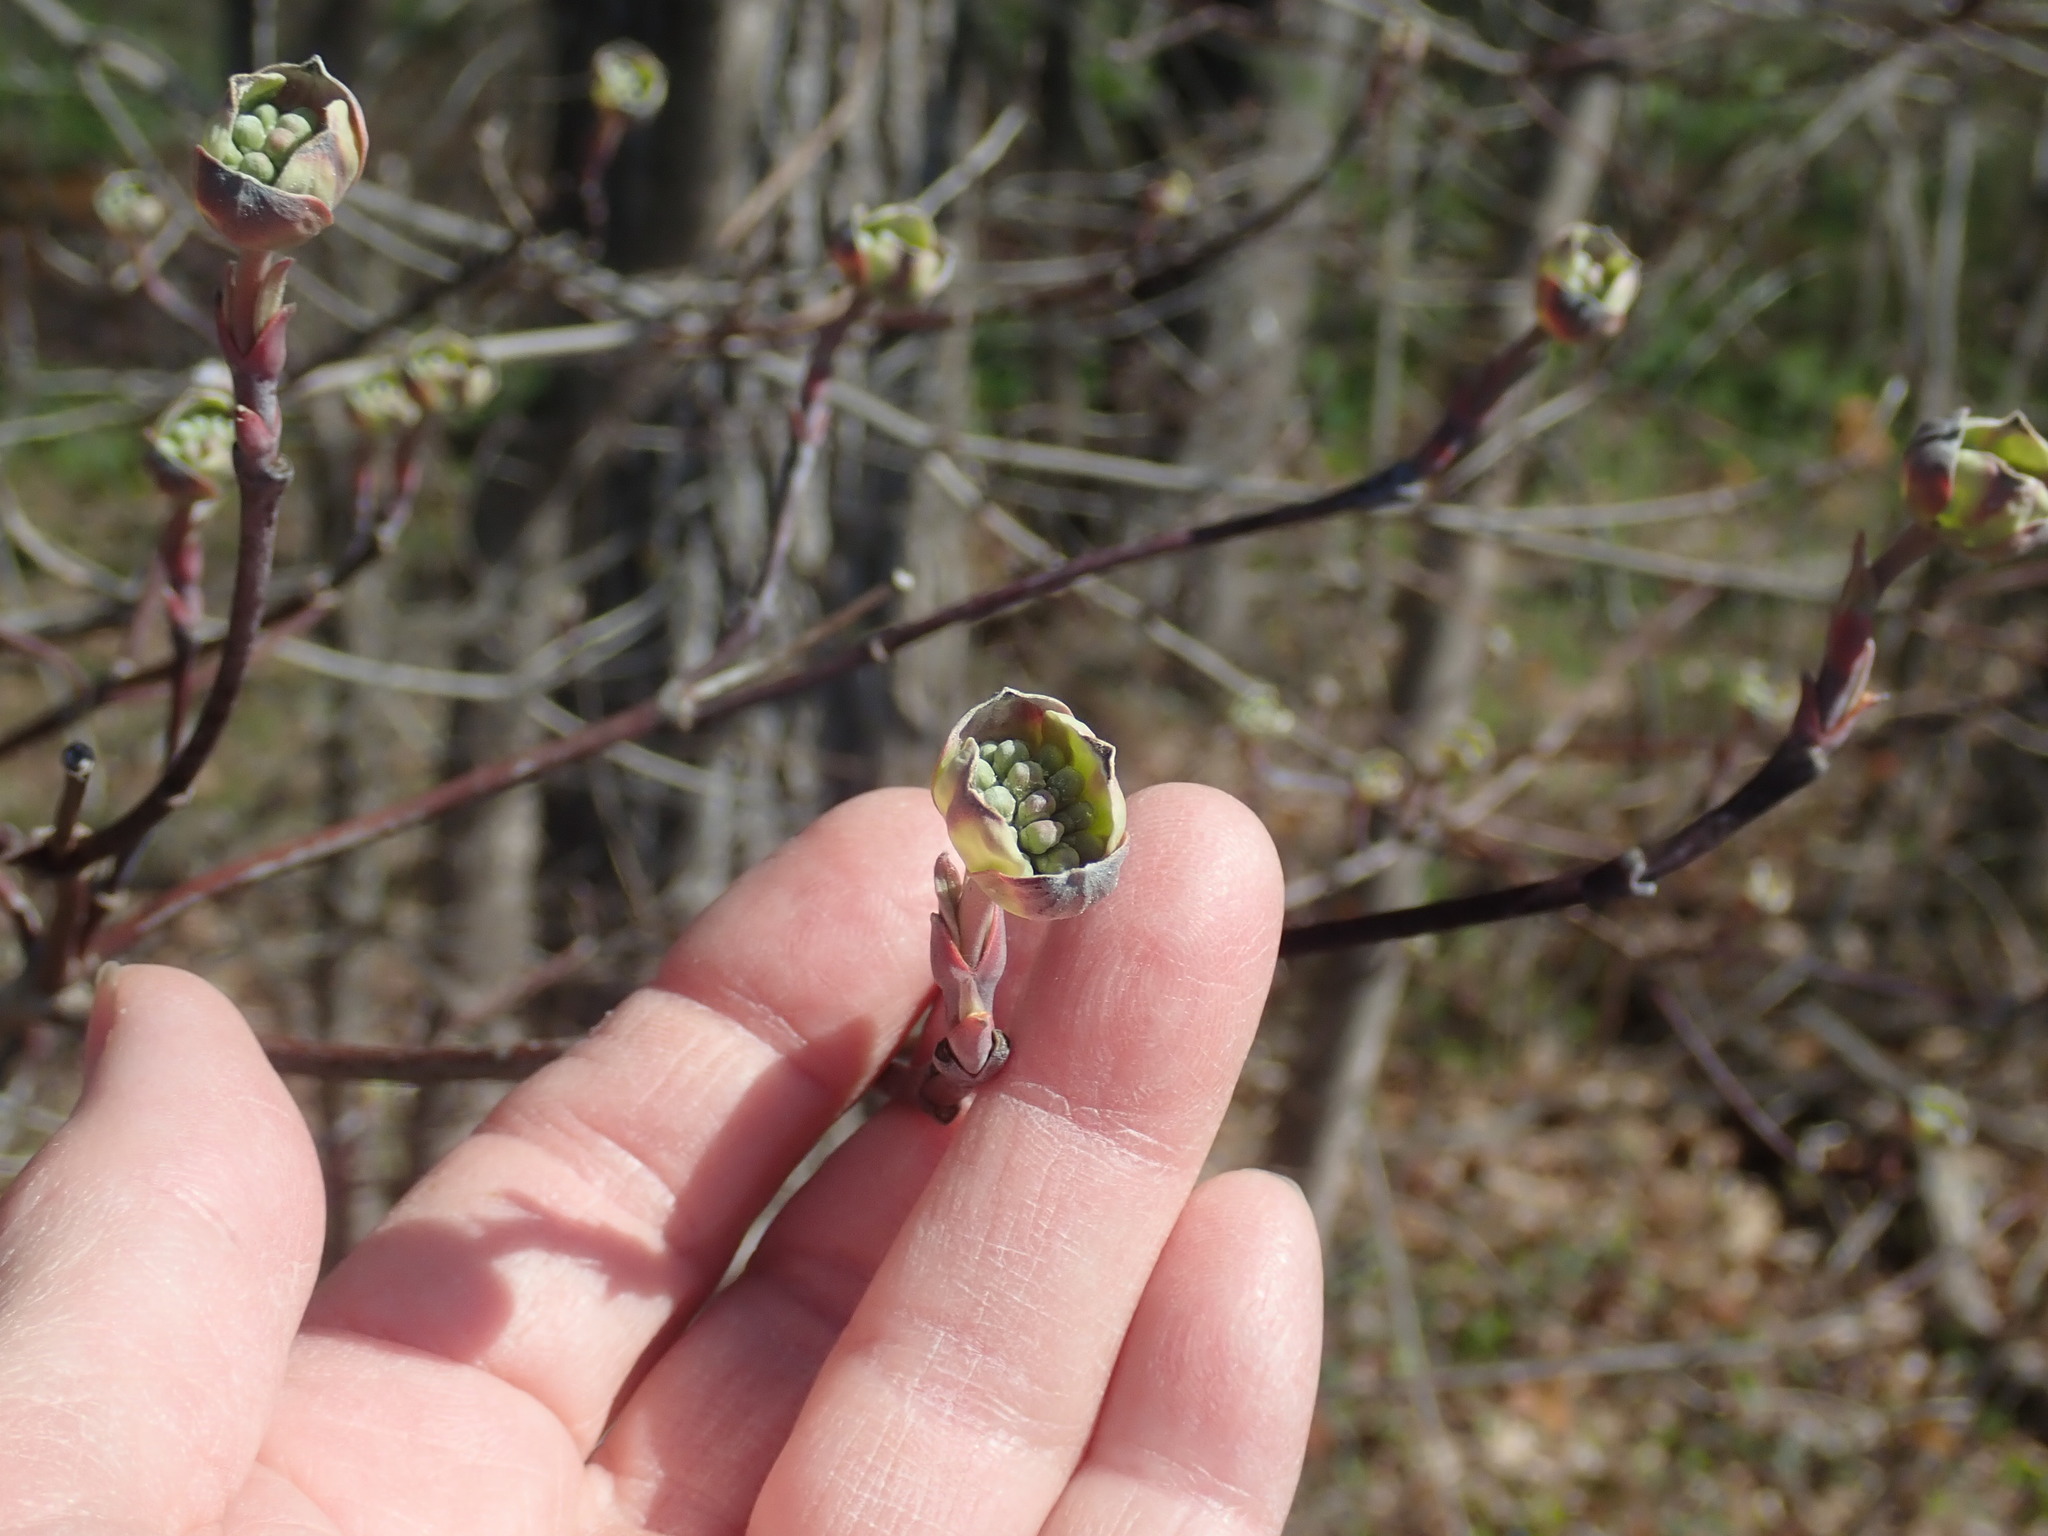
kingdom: Plantae
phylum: Tracheophyta
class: Magnoliopsida
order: Cornales
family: Cornaceae
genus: Cornus
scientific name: Cornus florida
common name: Flowering dogwood
